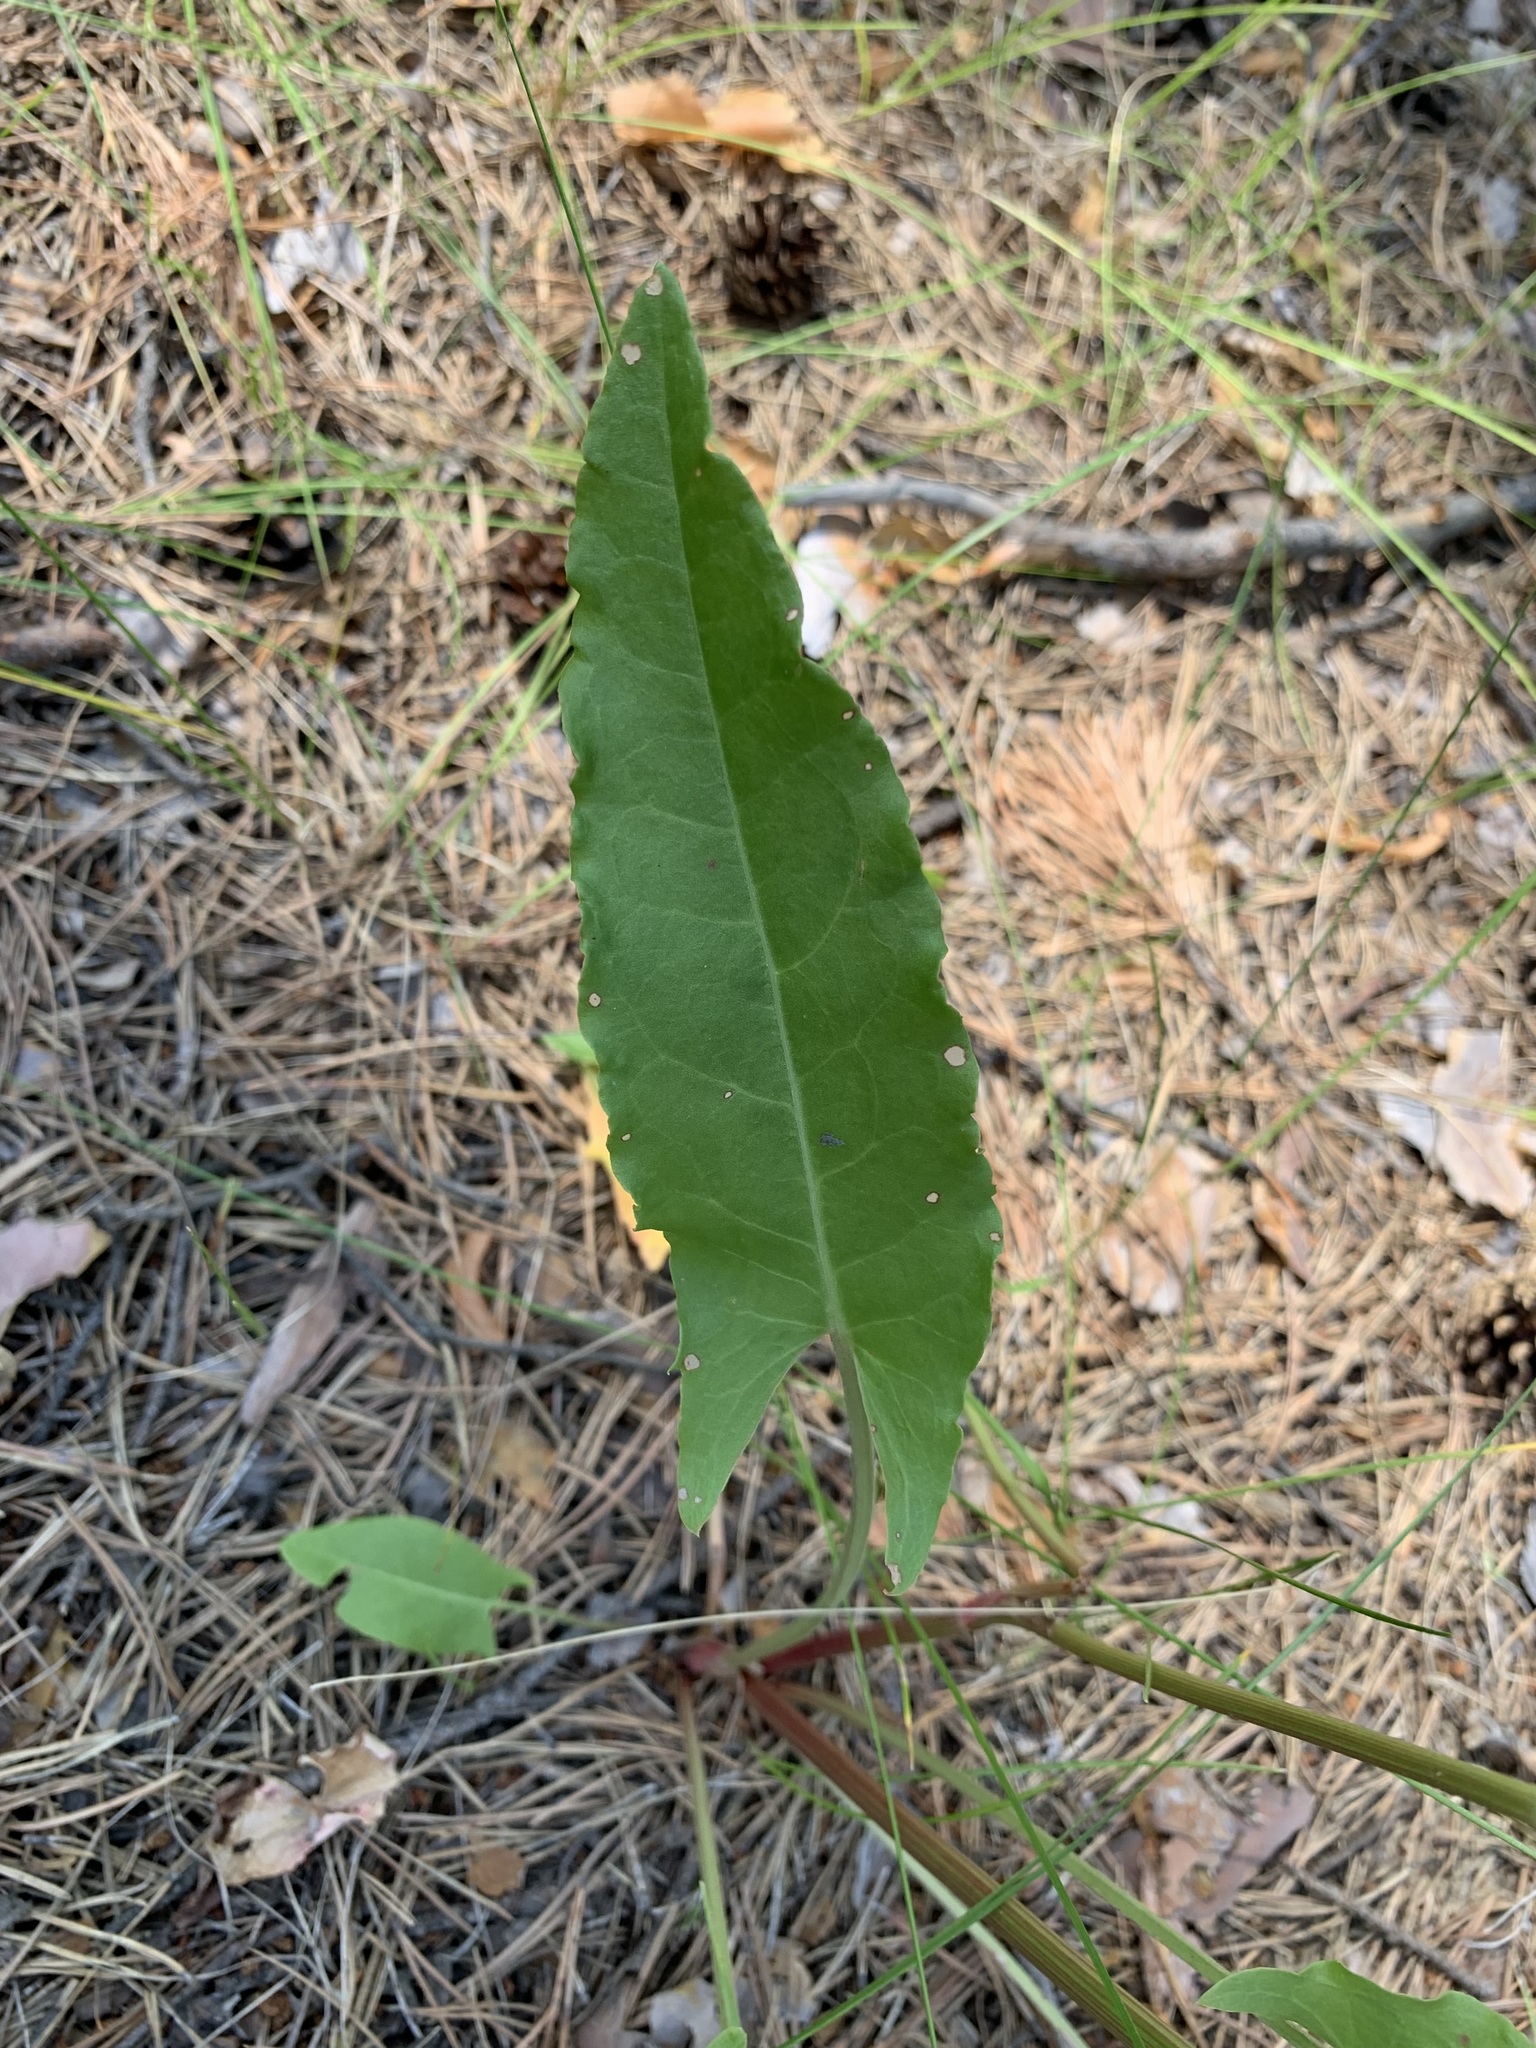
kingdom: Plantae
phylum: Tracheophyta
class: Magnoliopsida
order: Caryophyllales
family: Polygonaceae
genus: Rumex
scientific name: Rumex thyrsiflorus
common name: Garden sorrel
